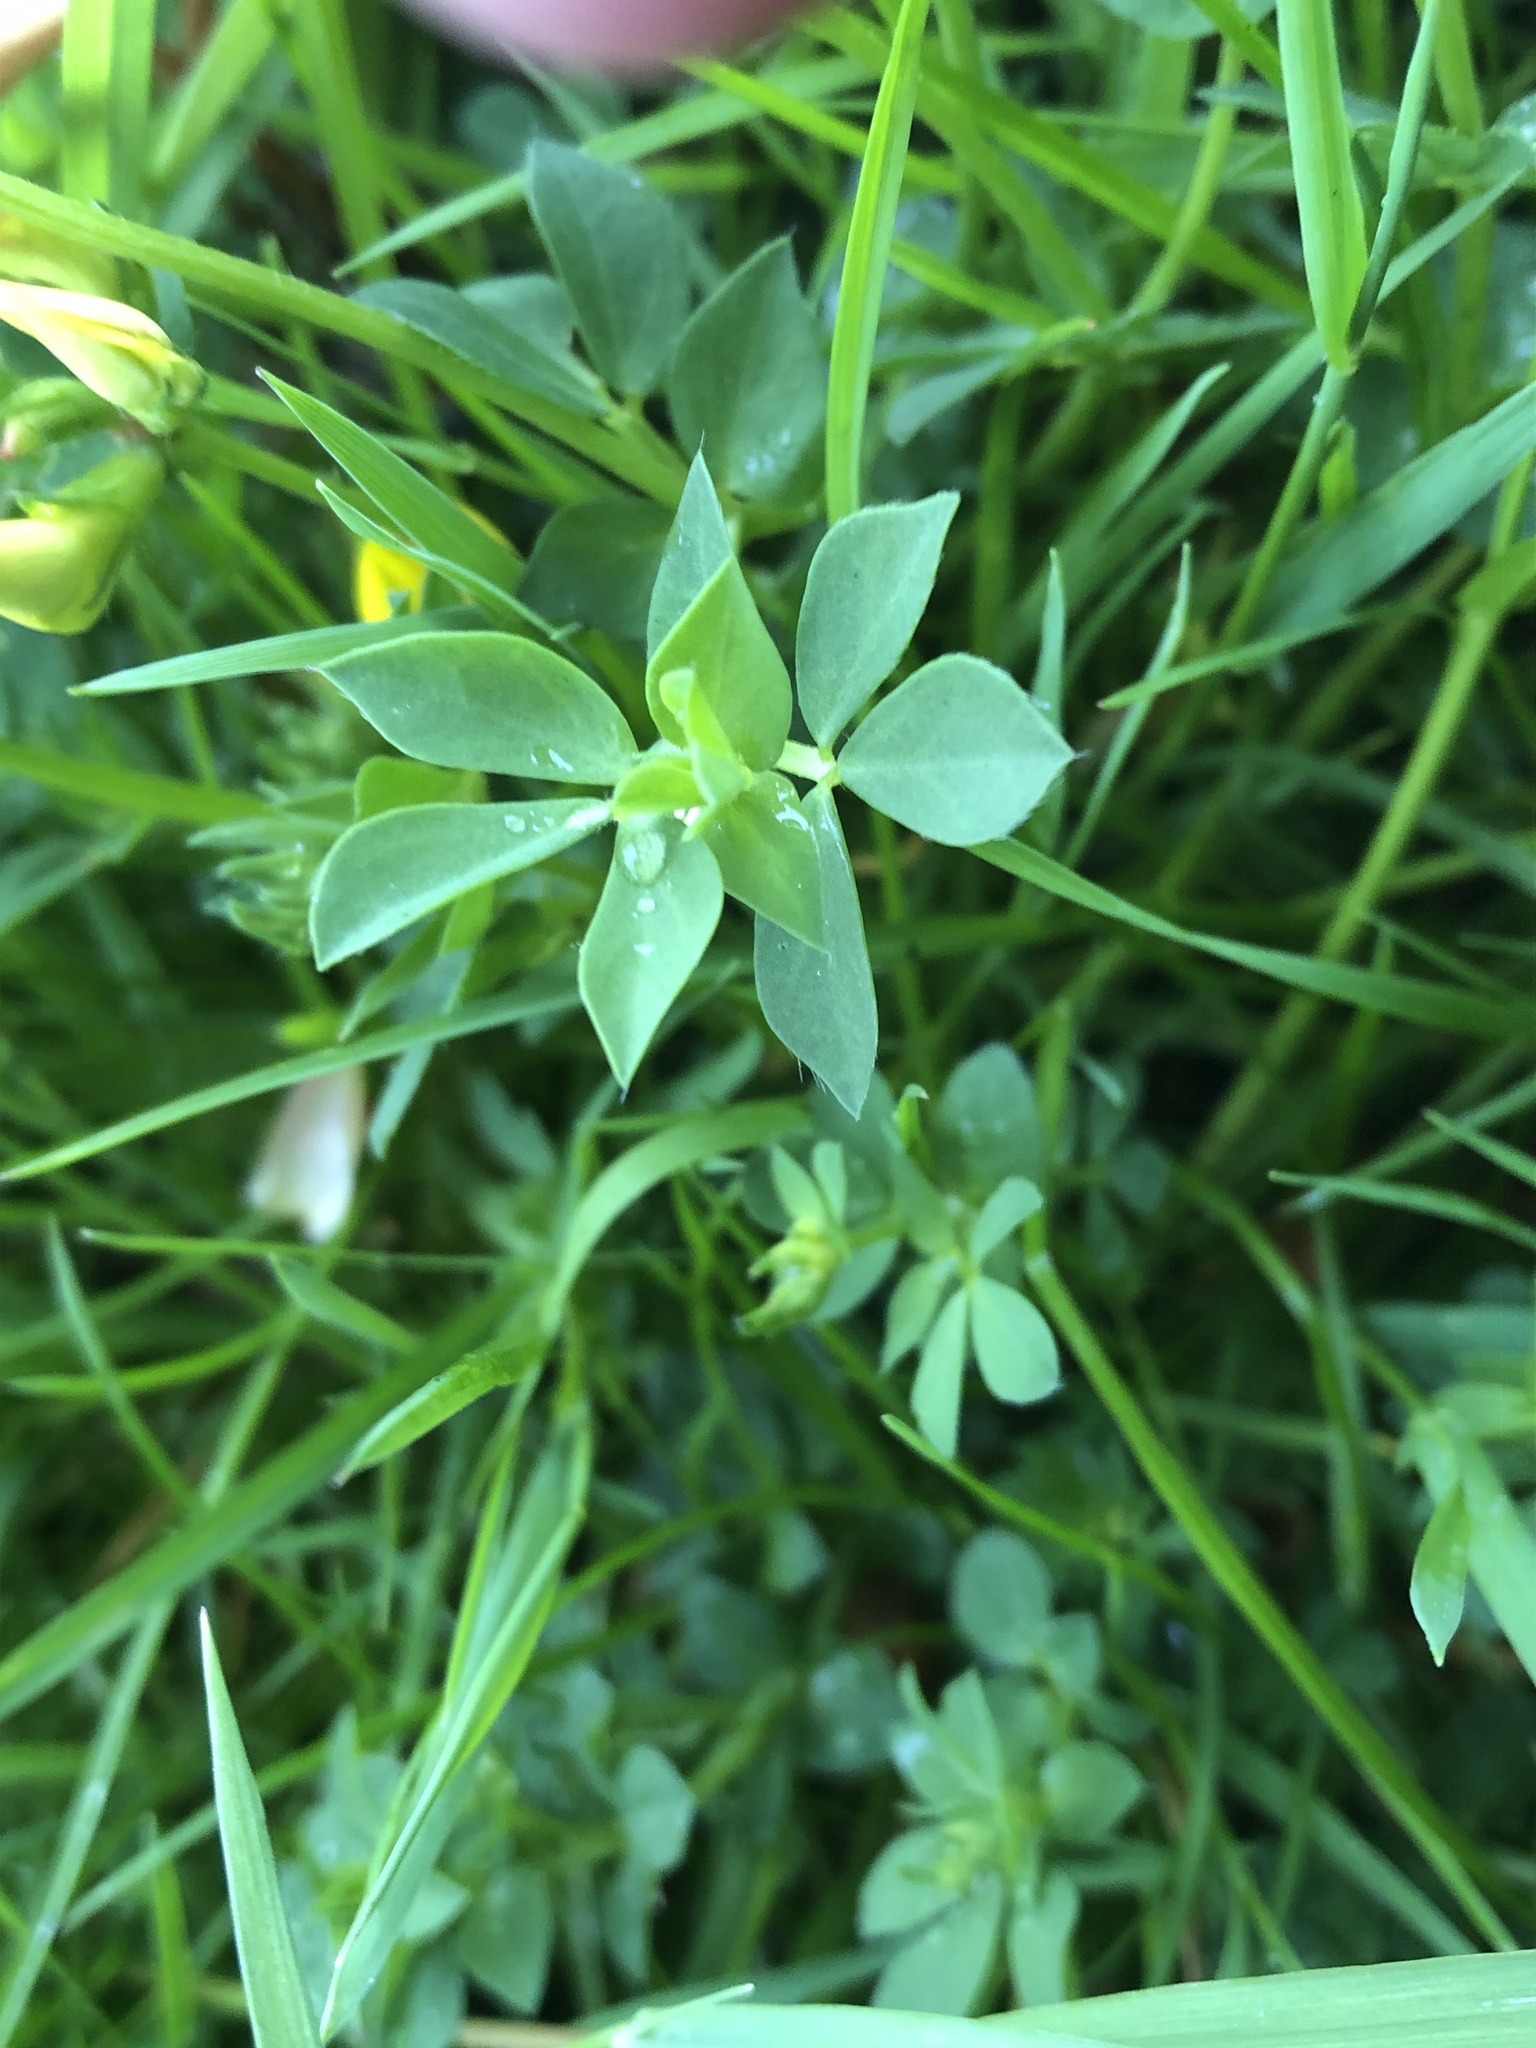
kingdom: Plantae
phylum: Tracheophyta
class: Magnoliopsida
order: Fabales
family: Fabaceae
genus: Lotus
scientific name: Lotus corniculatus
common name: Common bird's-foot-trefoil
